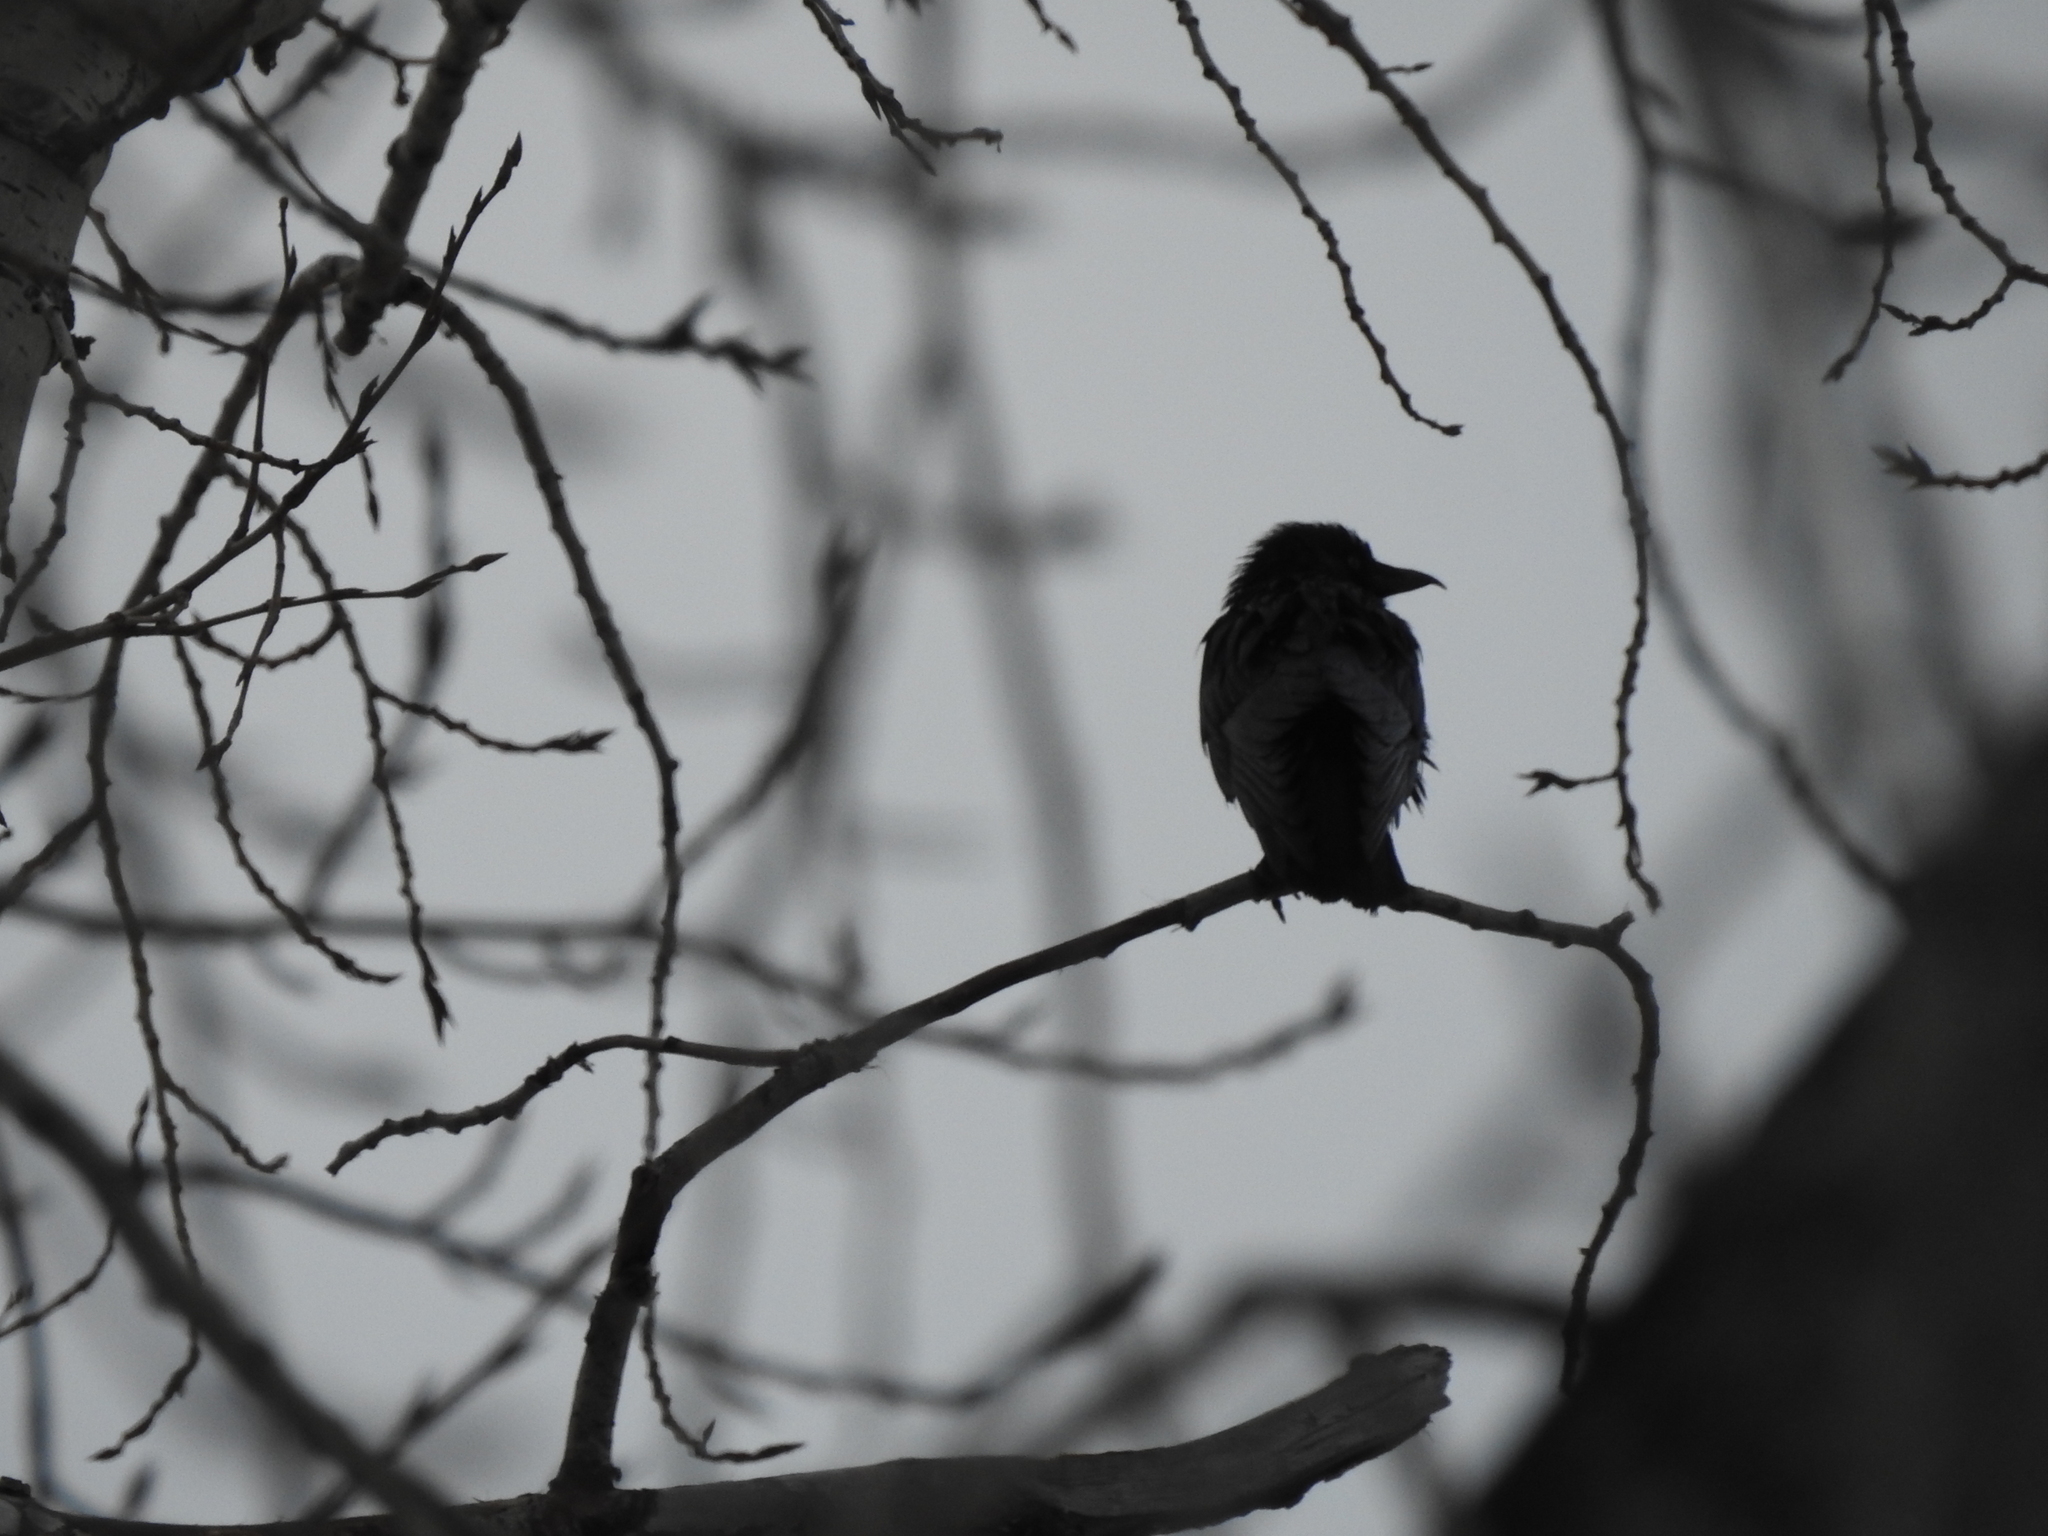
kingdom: Animalia
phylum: Chordata
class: Aves
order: Passeriformes
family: Corvidae
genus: Coloeus
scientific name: Coloeus monedula
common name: Western jackdaw
